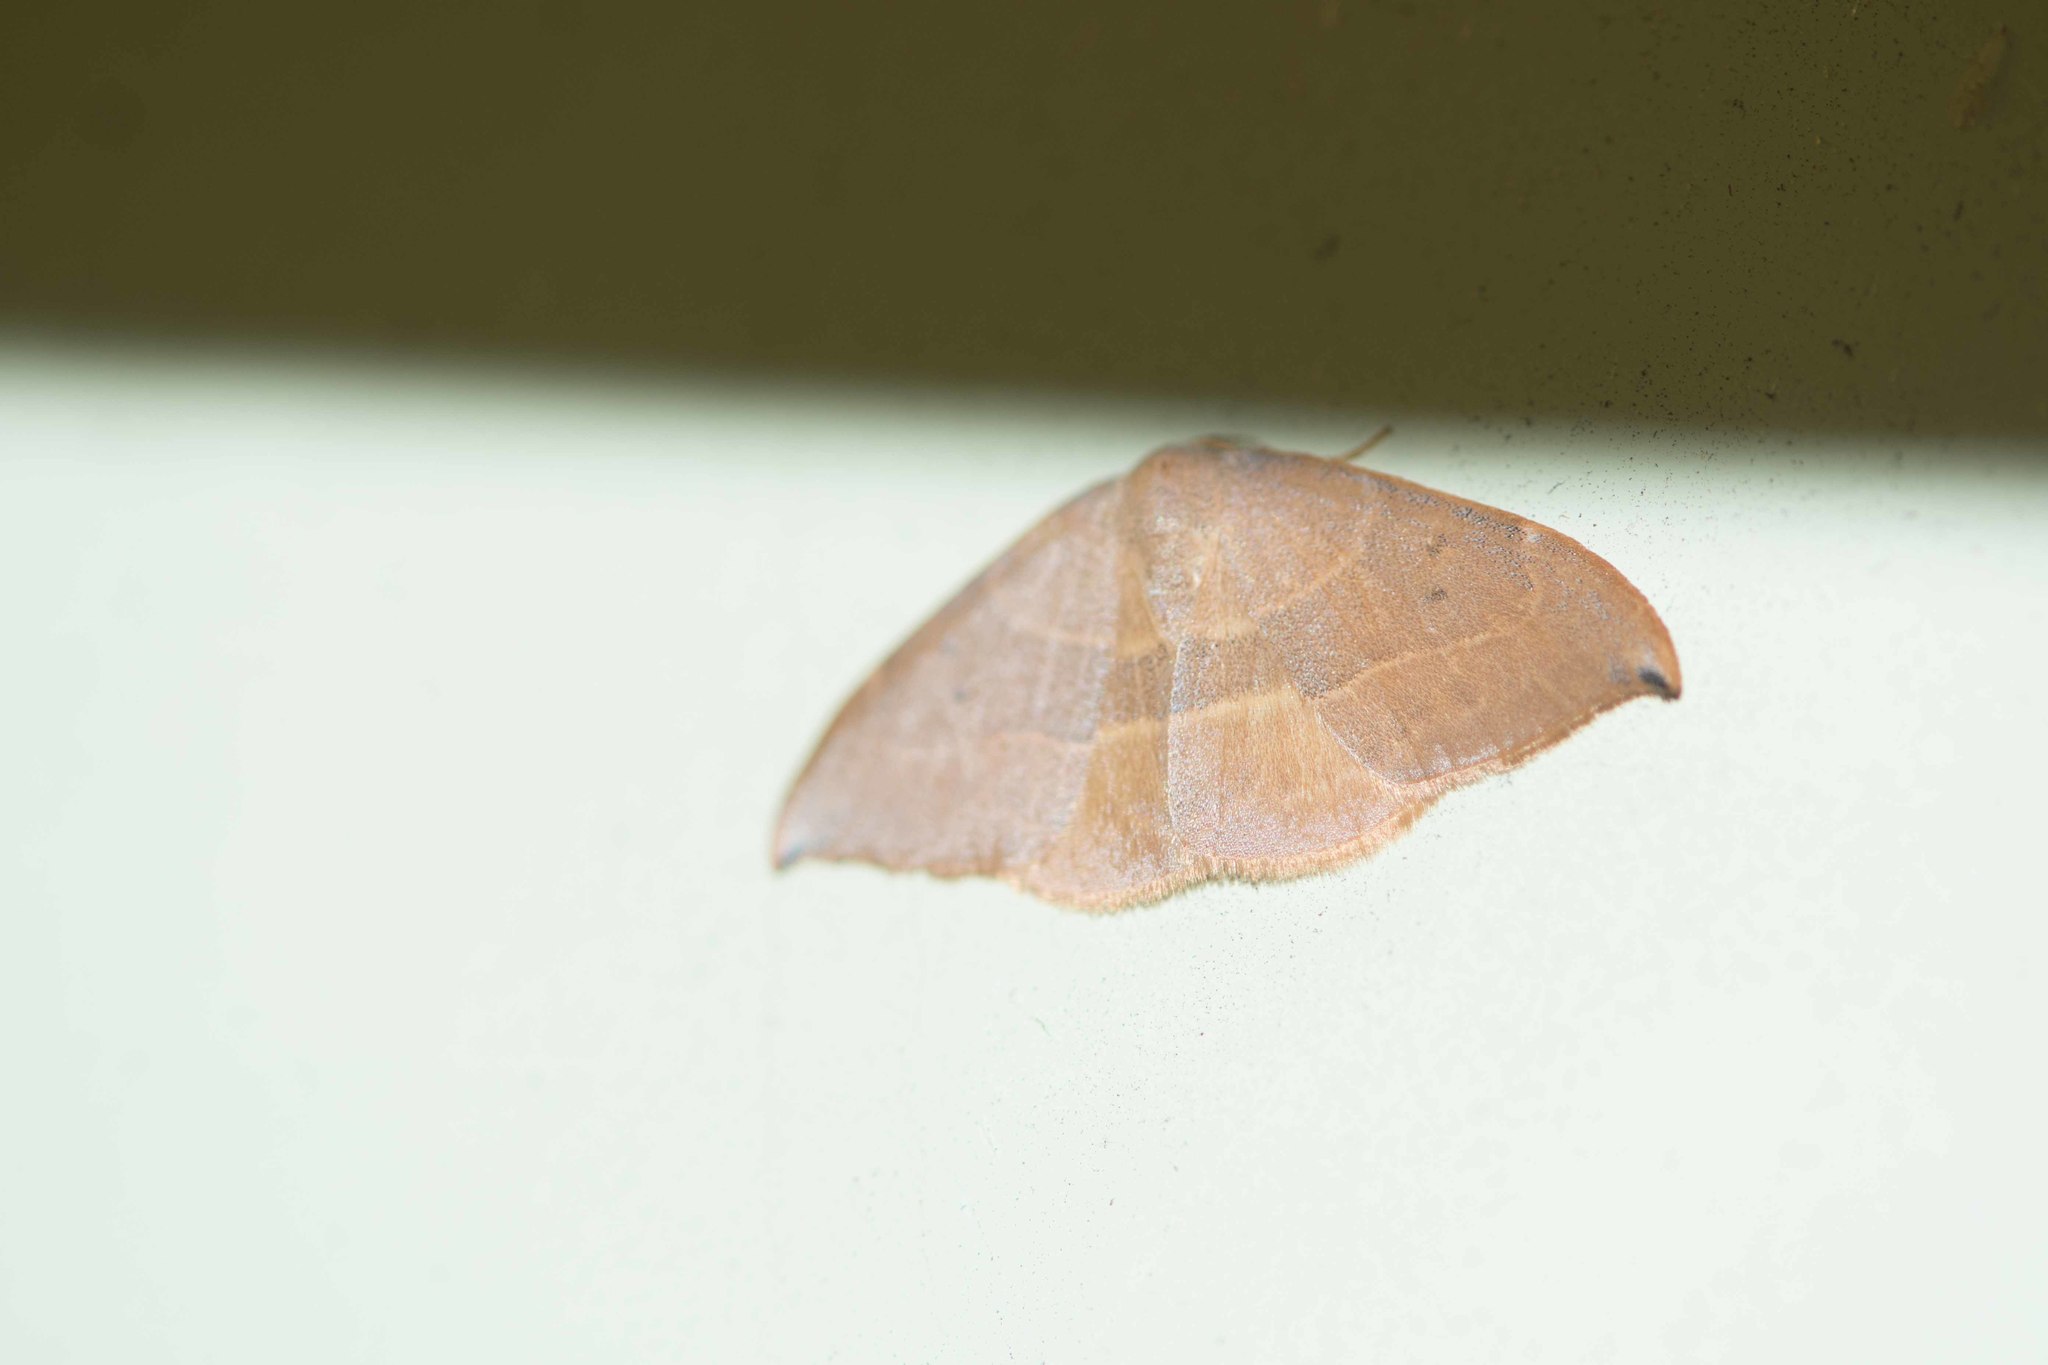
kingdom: Animalia
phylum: Arthropoda
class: Insecta
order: Lepidoptera
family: Drepanidae
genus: Watsonalla
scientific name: Watsonalla uncinula
